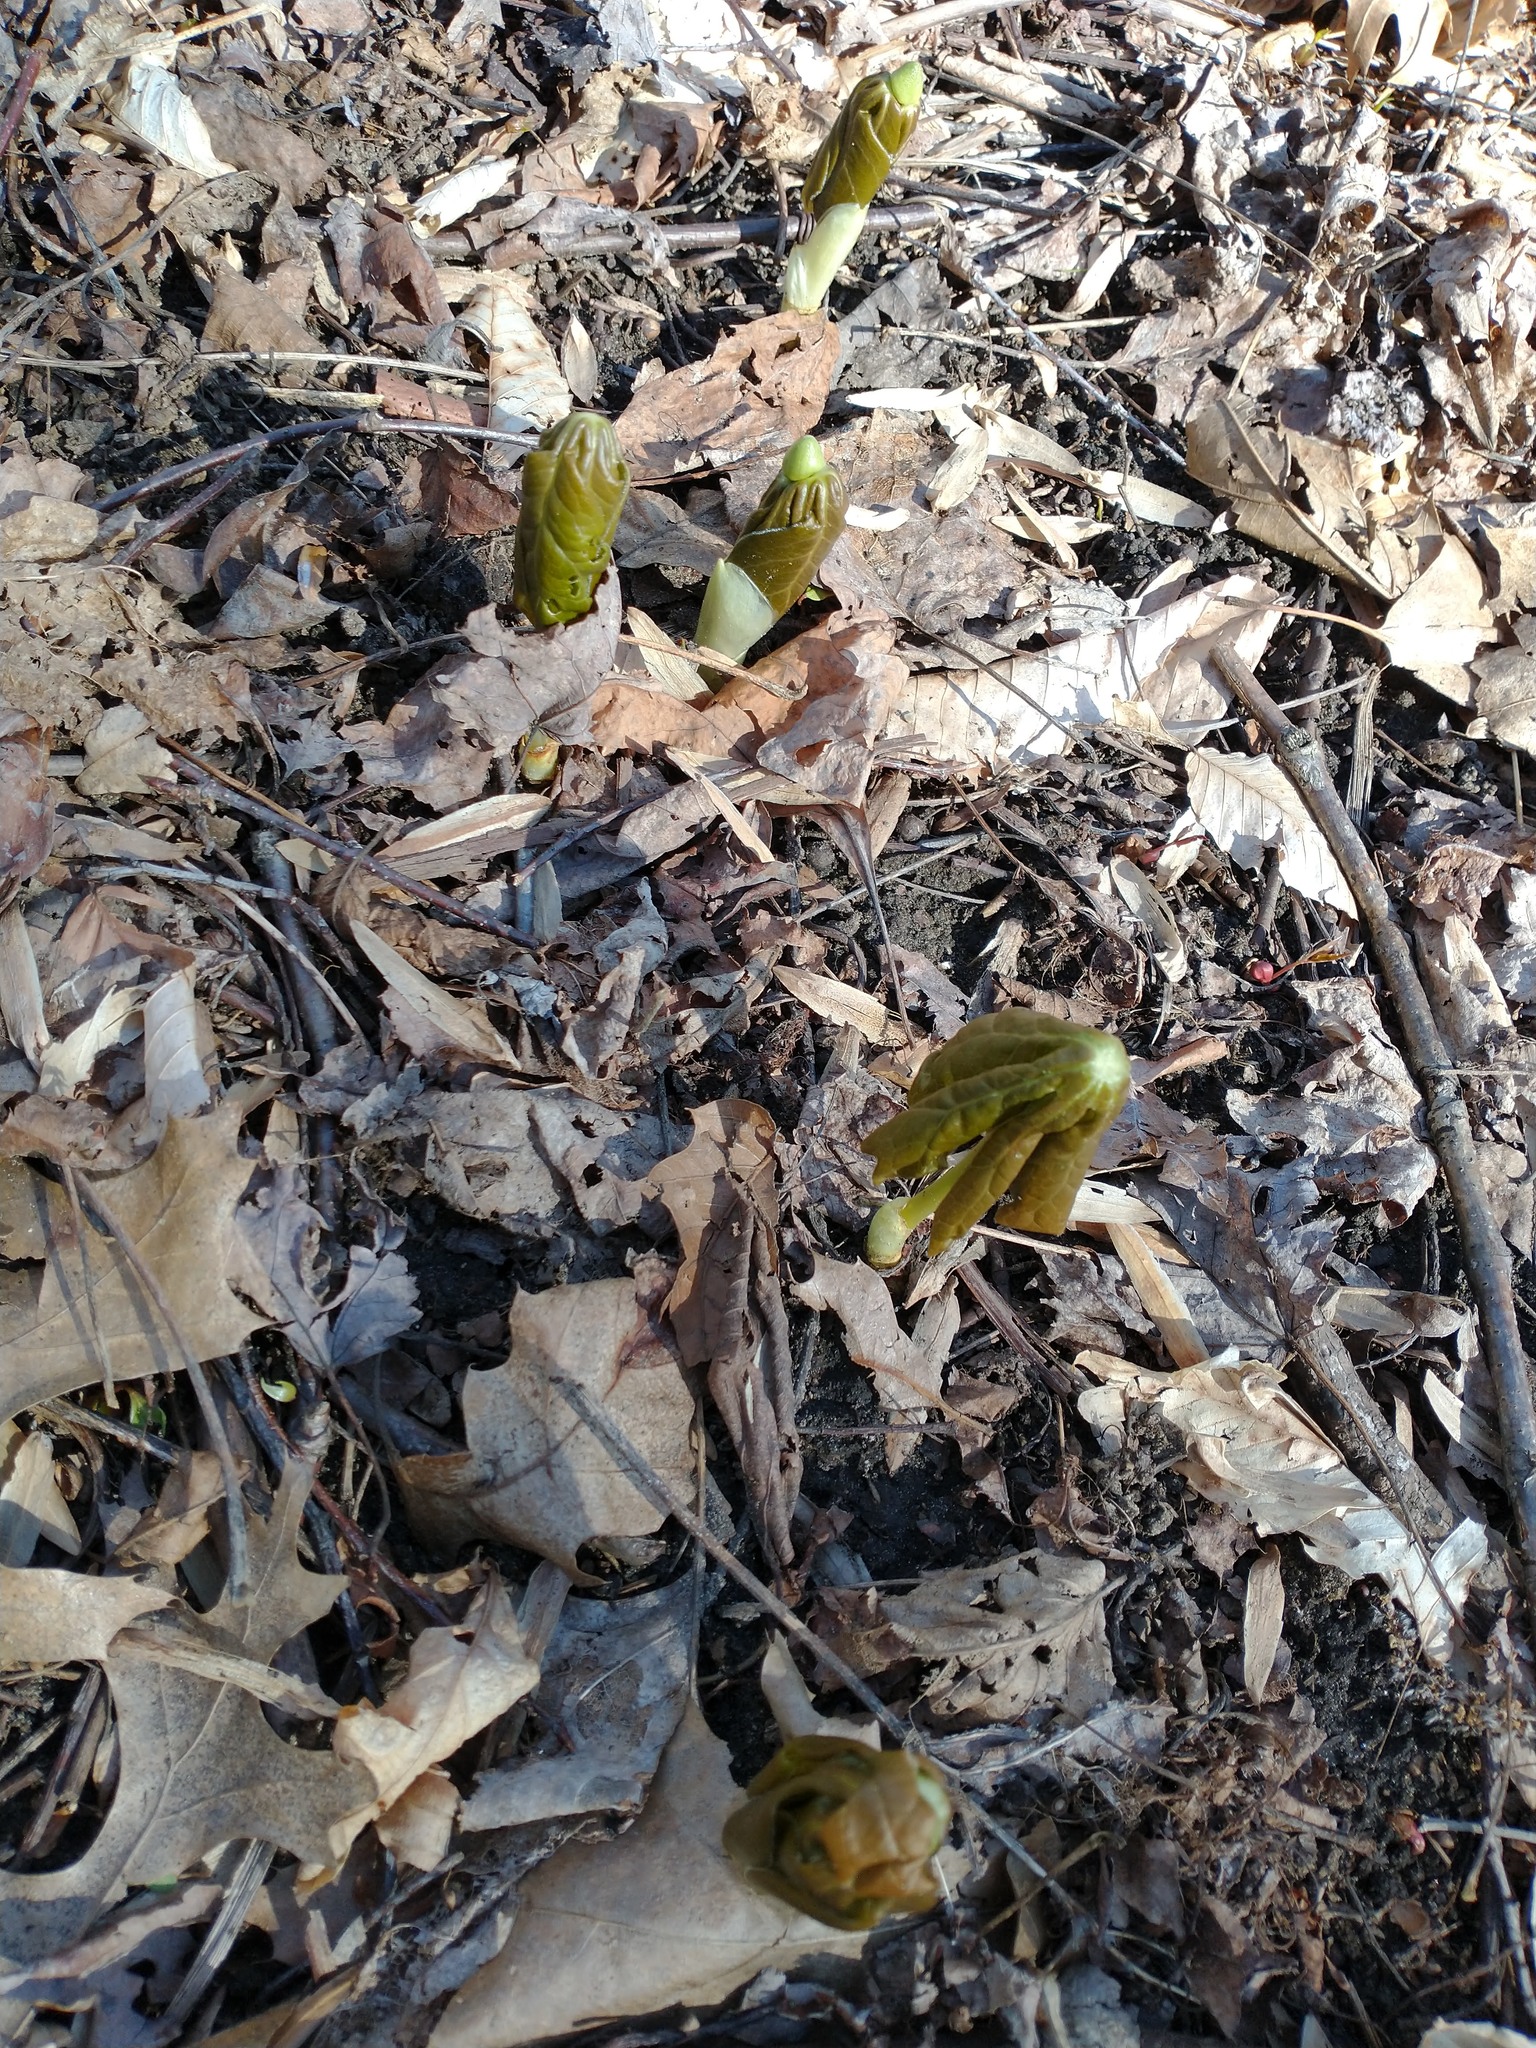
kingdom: Plantae
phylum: Tracheophyta
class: Magnoliopsida
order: Ranunculales
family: Berberidaceae
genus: Podophyllum
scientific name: Podophyllum peltatum
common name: Wild mandrake
